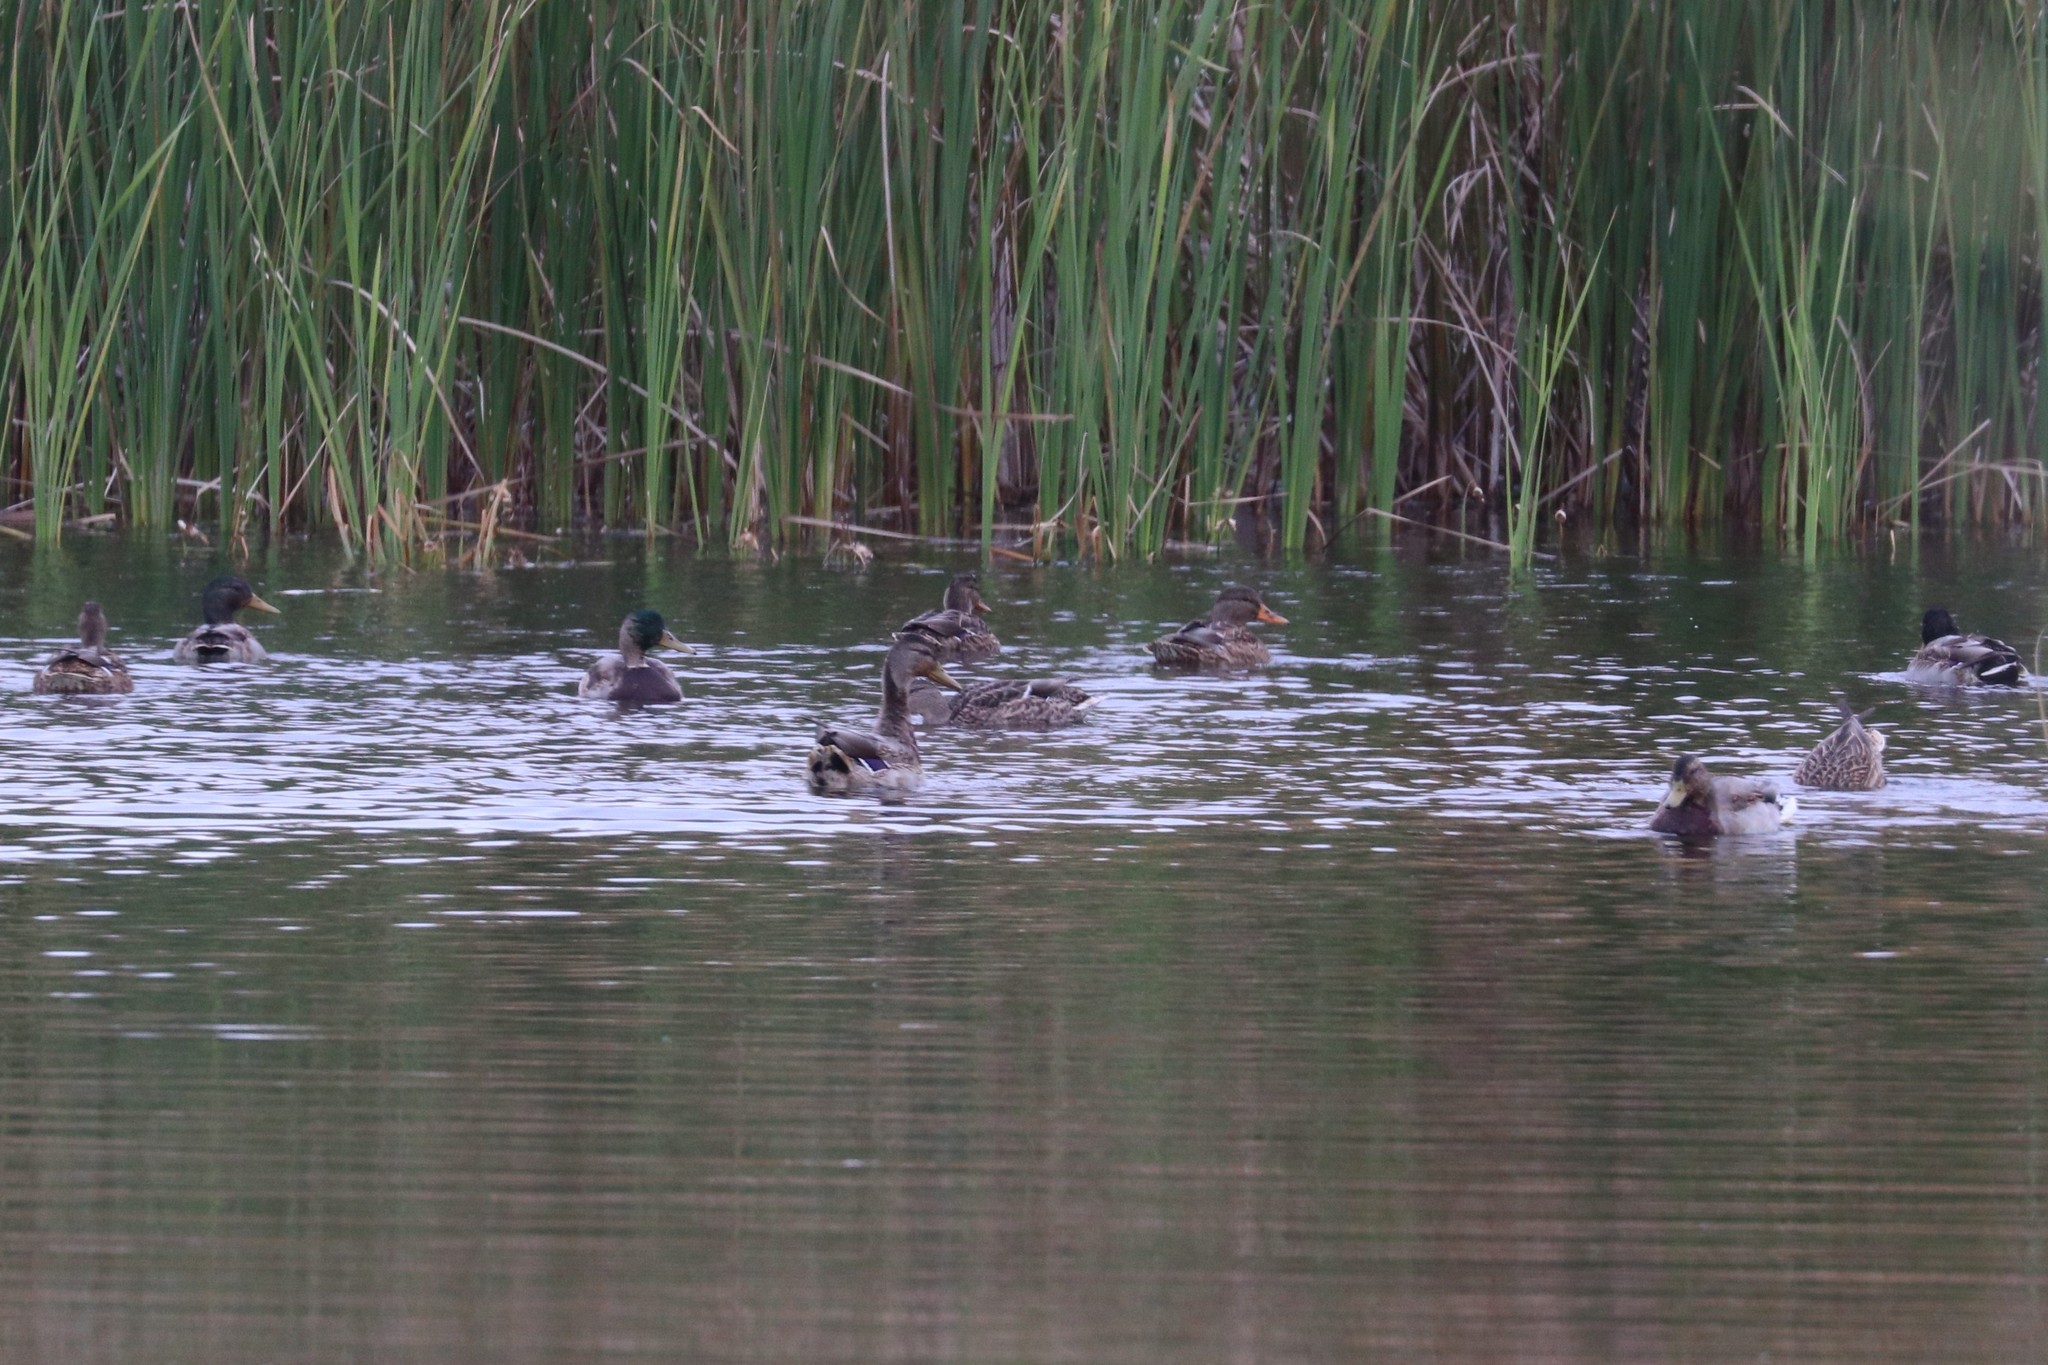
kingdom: Animalia
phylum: Chordata
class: Aves
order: Anseriformes
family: Anatidae
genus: Anas
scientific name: Anas platyrhynchos
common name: Mallard
